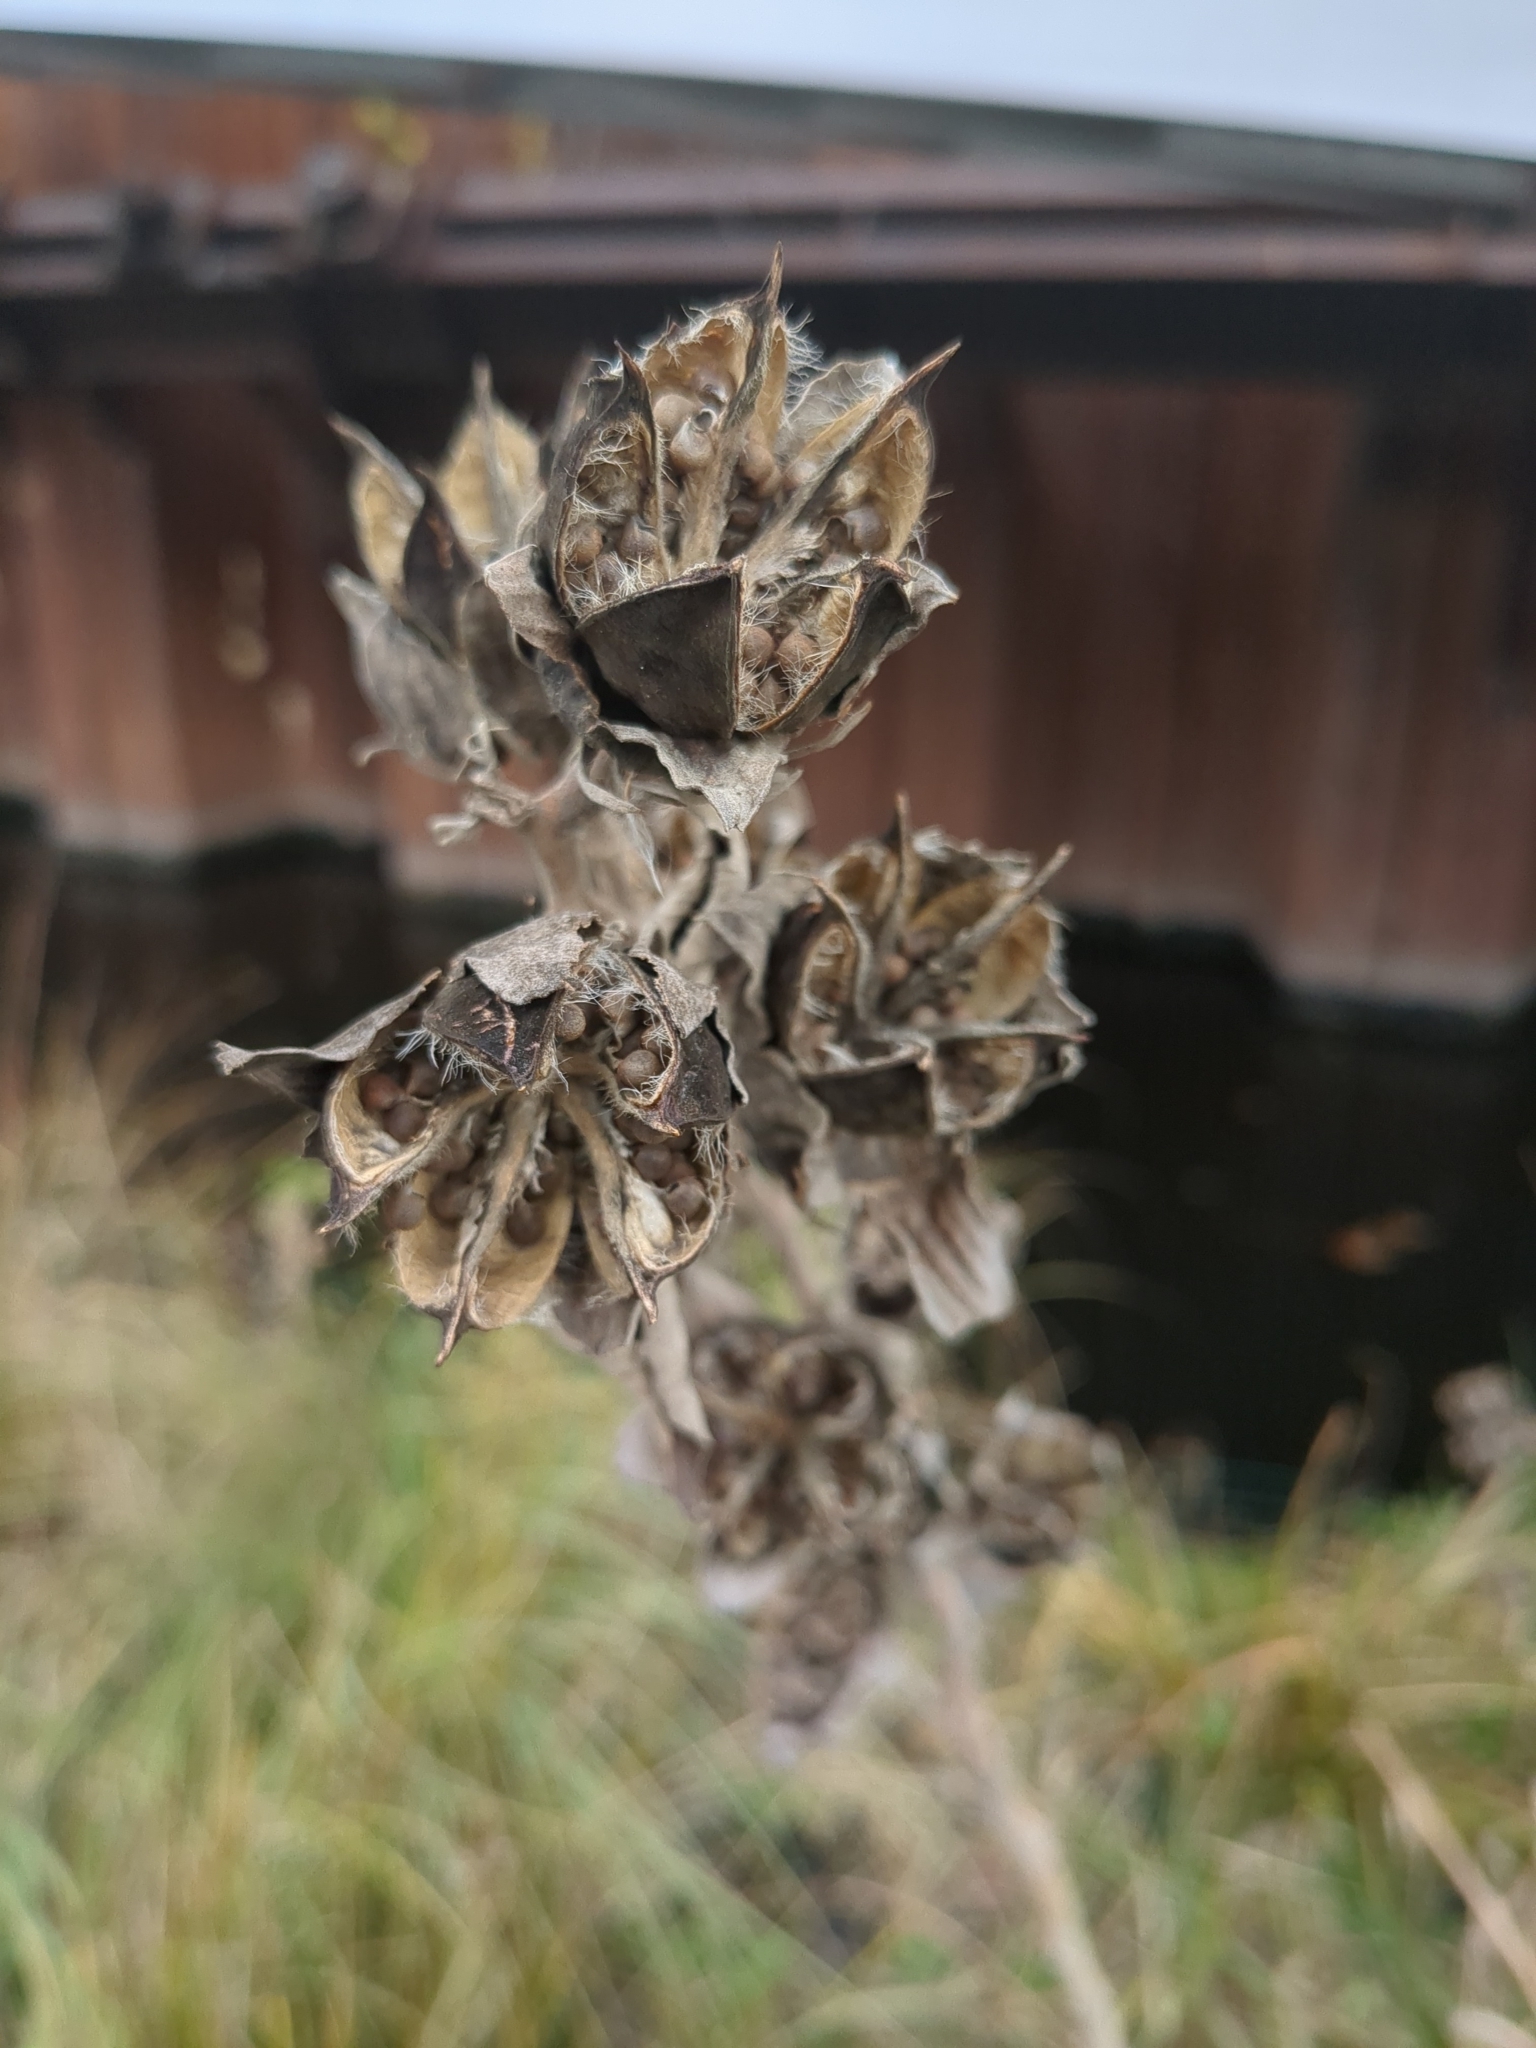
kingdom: Plantae
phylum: Tracheophyta
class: Magnoliopsida
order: Malvales
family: Malvaceae
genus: Hibiscus
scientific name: Hibiscus moscheutos
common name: Common rose-mallow
